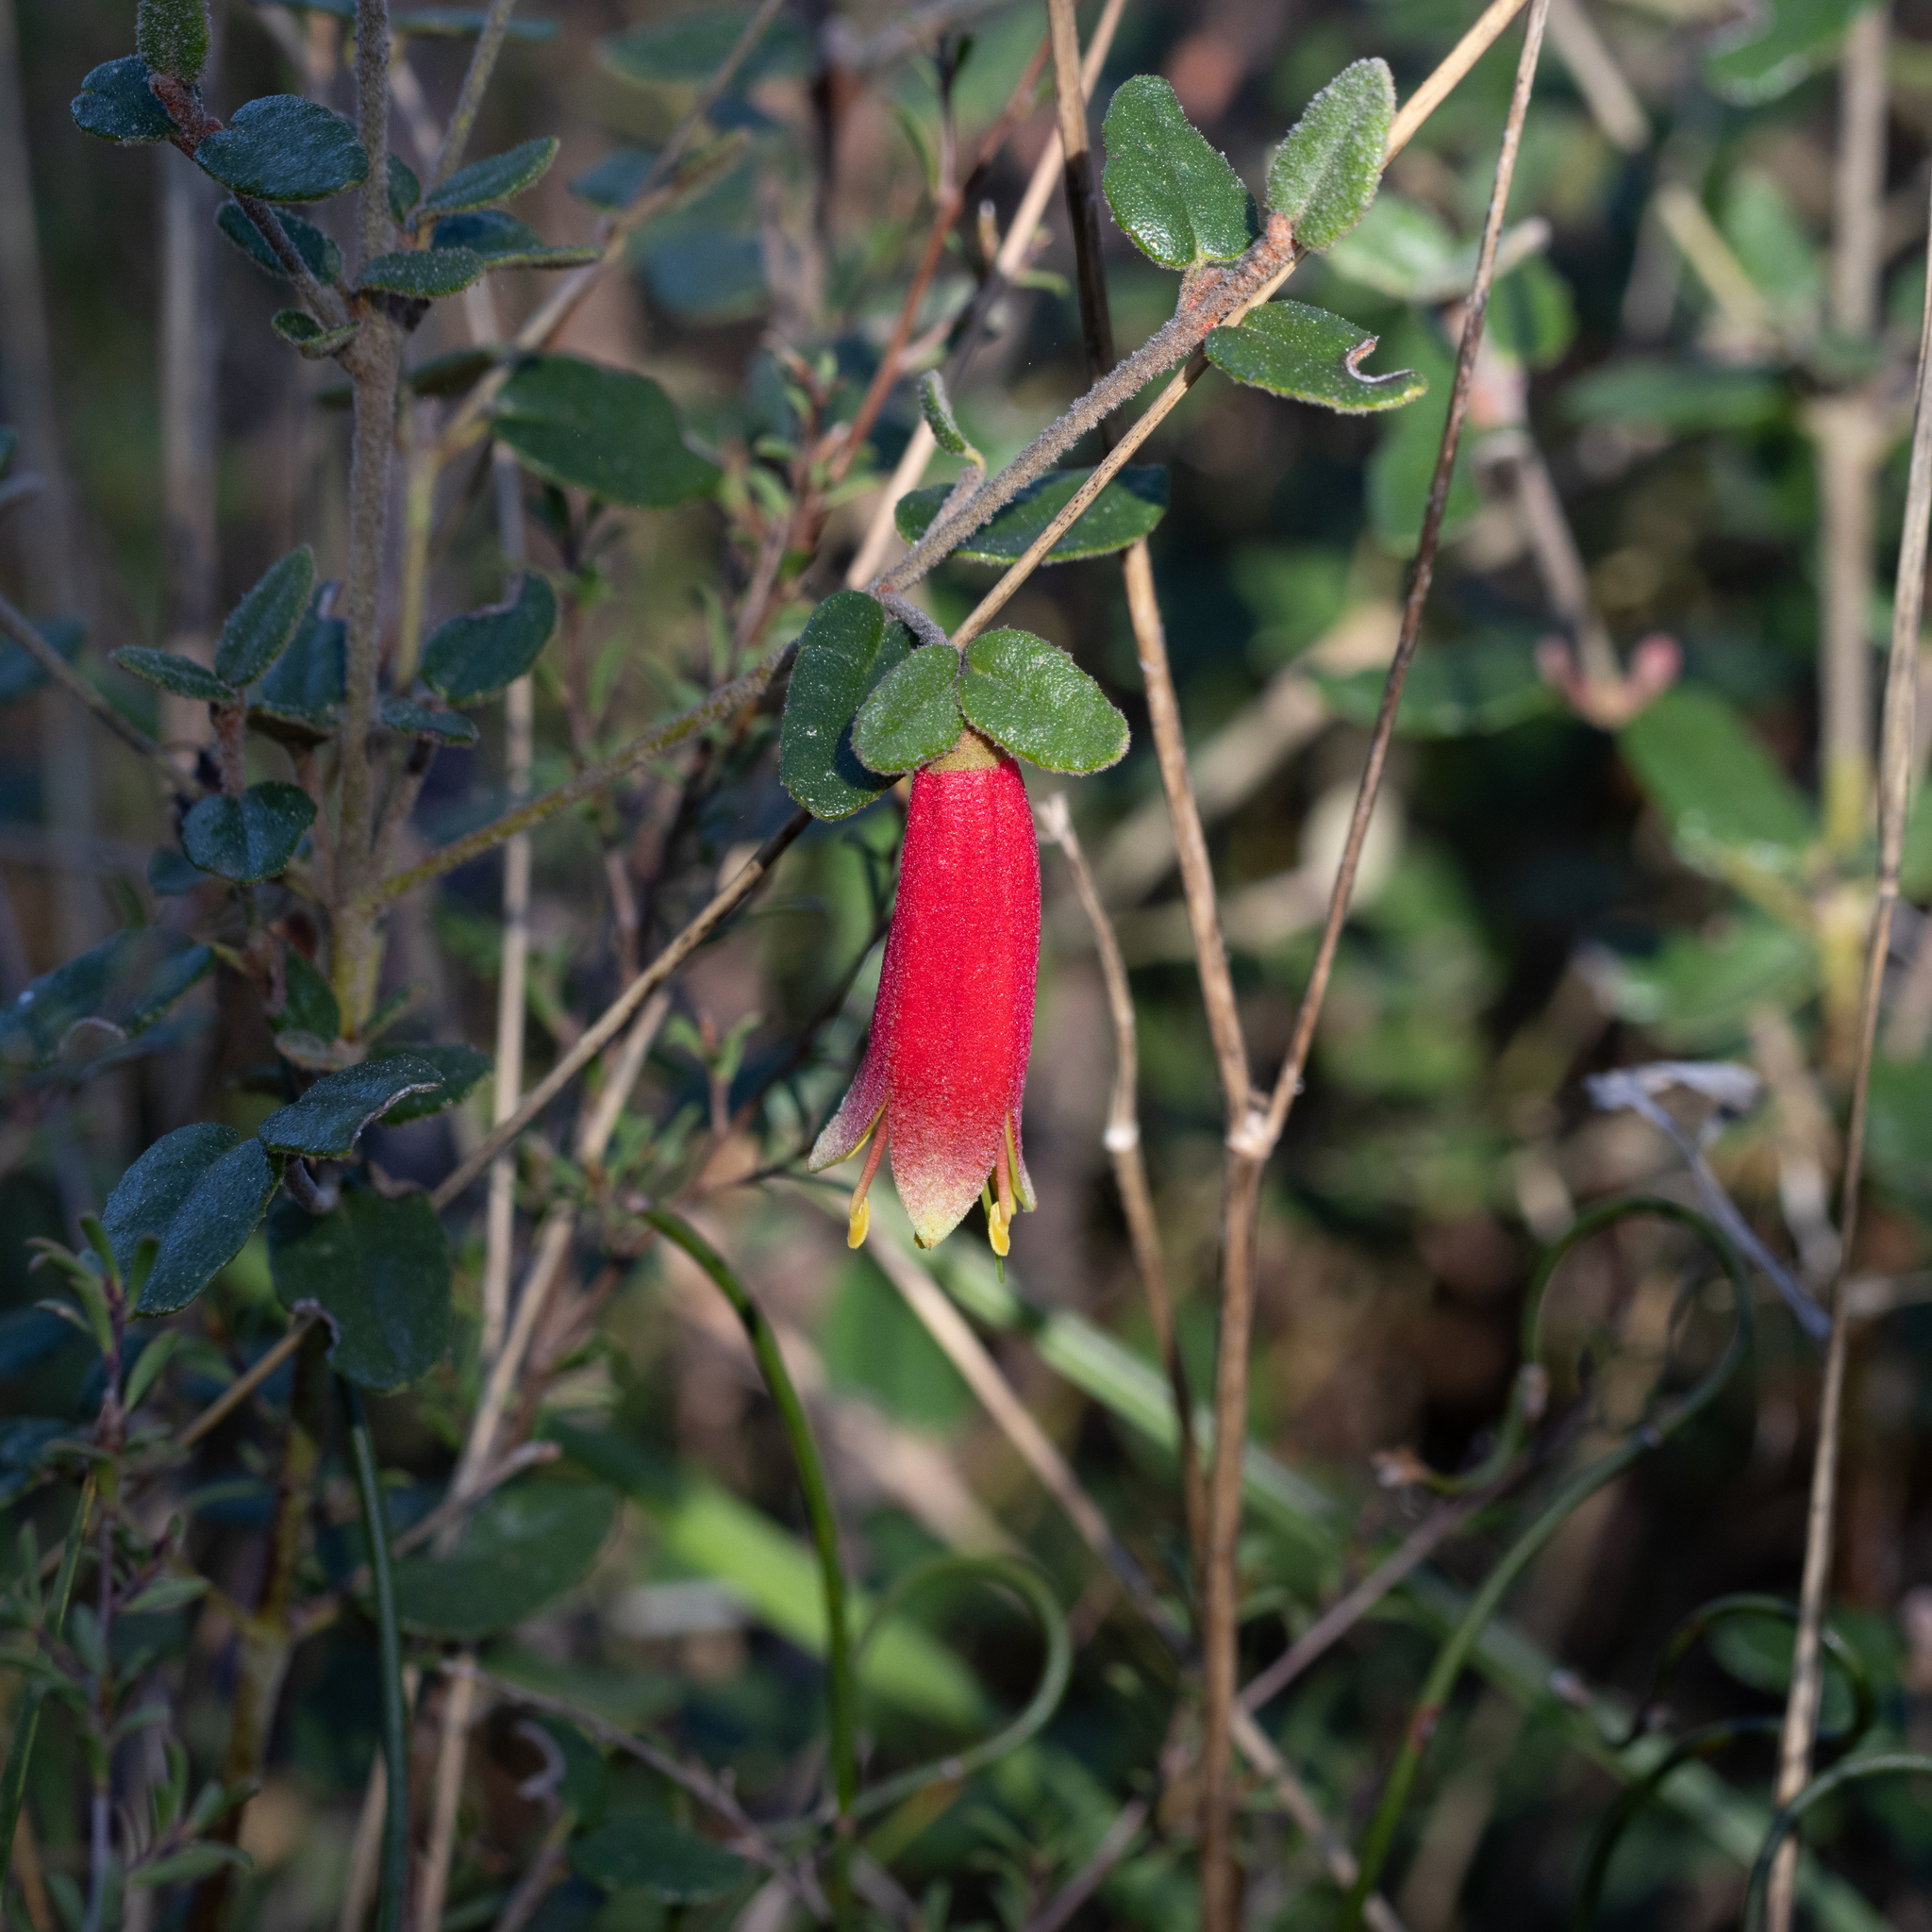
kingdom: Plantae
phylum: Tracheophyta
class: Magnoliopsida
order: Sapindales
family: Rutaceae
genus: Correa
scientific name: Correa reflexa
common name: Common correa
